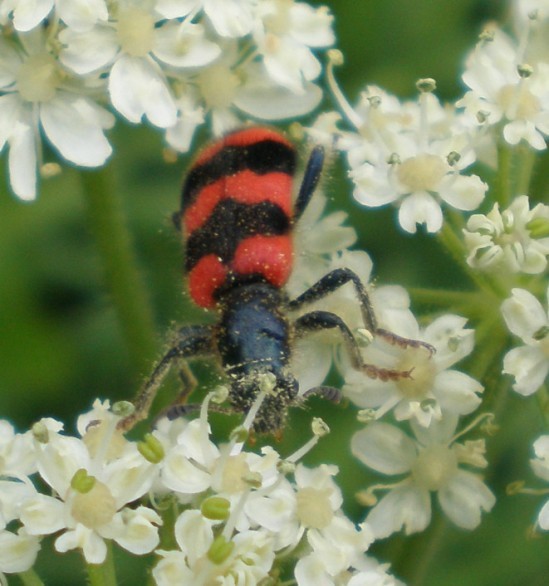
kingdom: Animalia
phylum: Arthropoda
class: Insecta
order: Coleoptera
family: Cleridae
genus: Trichodes
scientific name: Trichodes apiarius
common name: Bee-eating beetle
